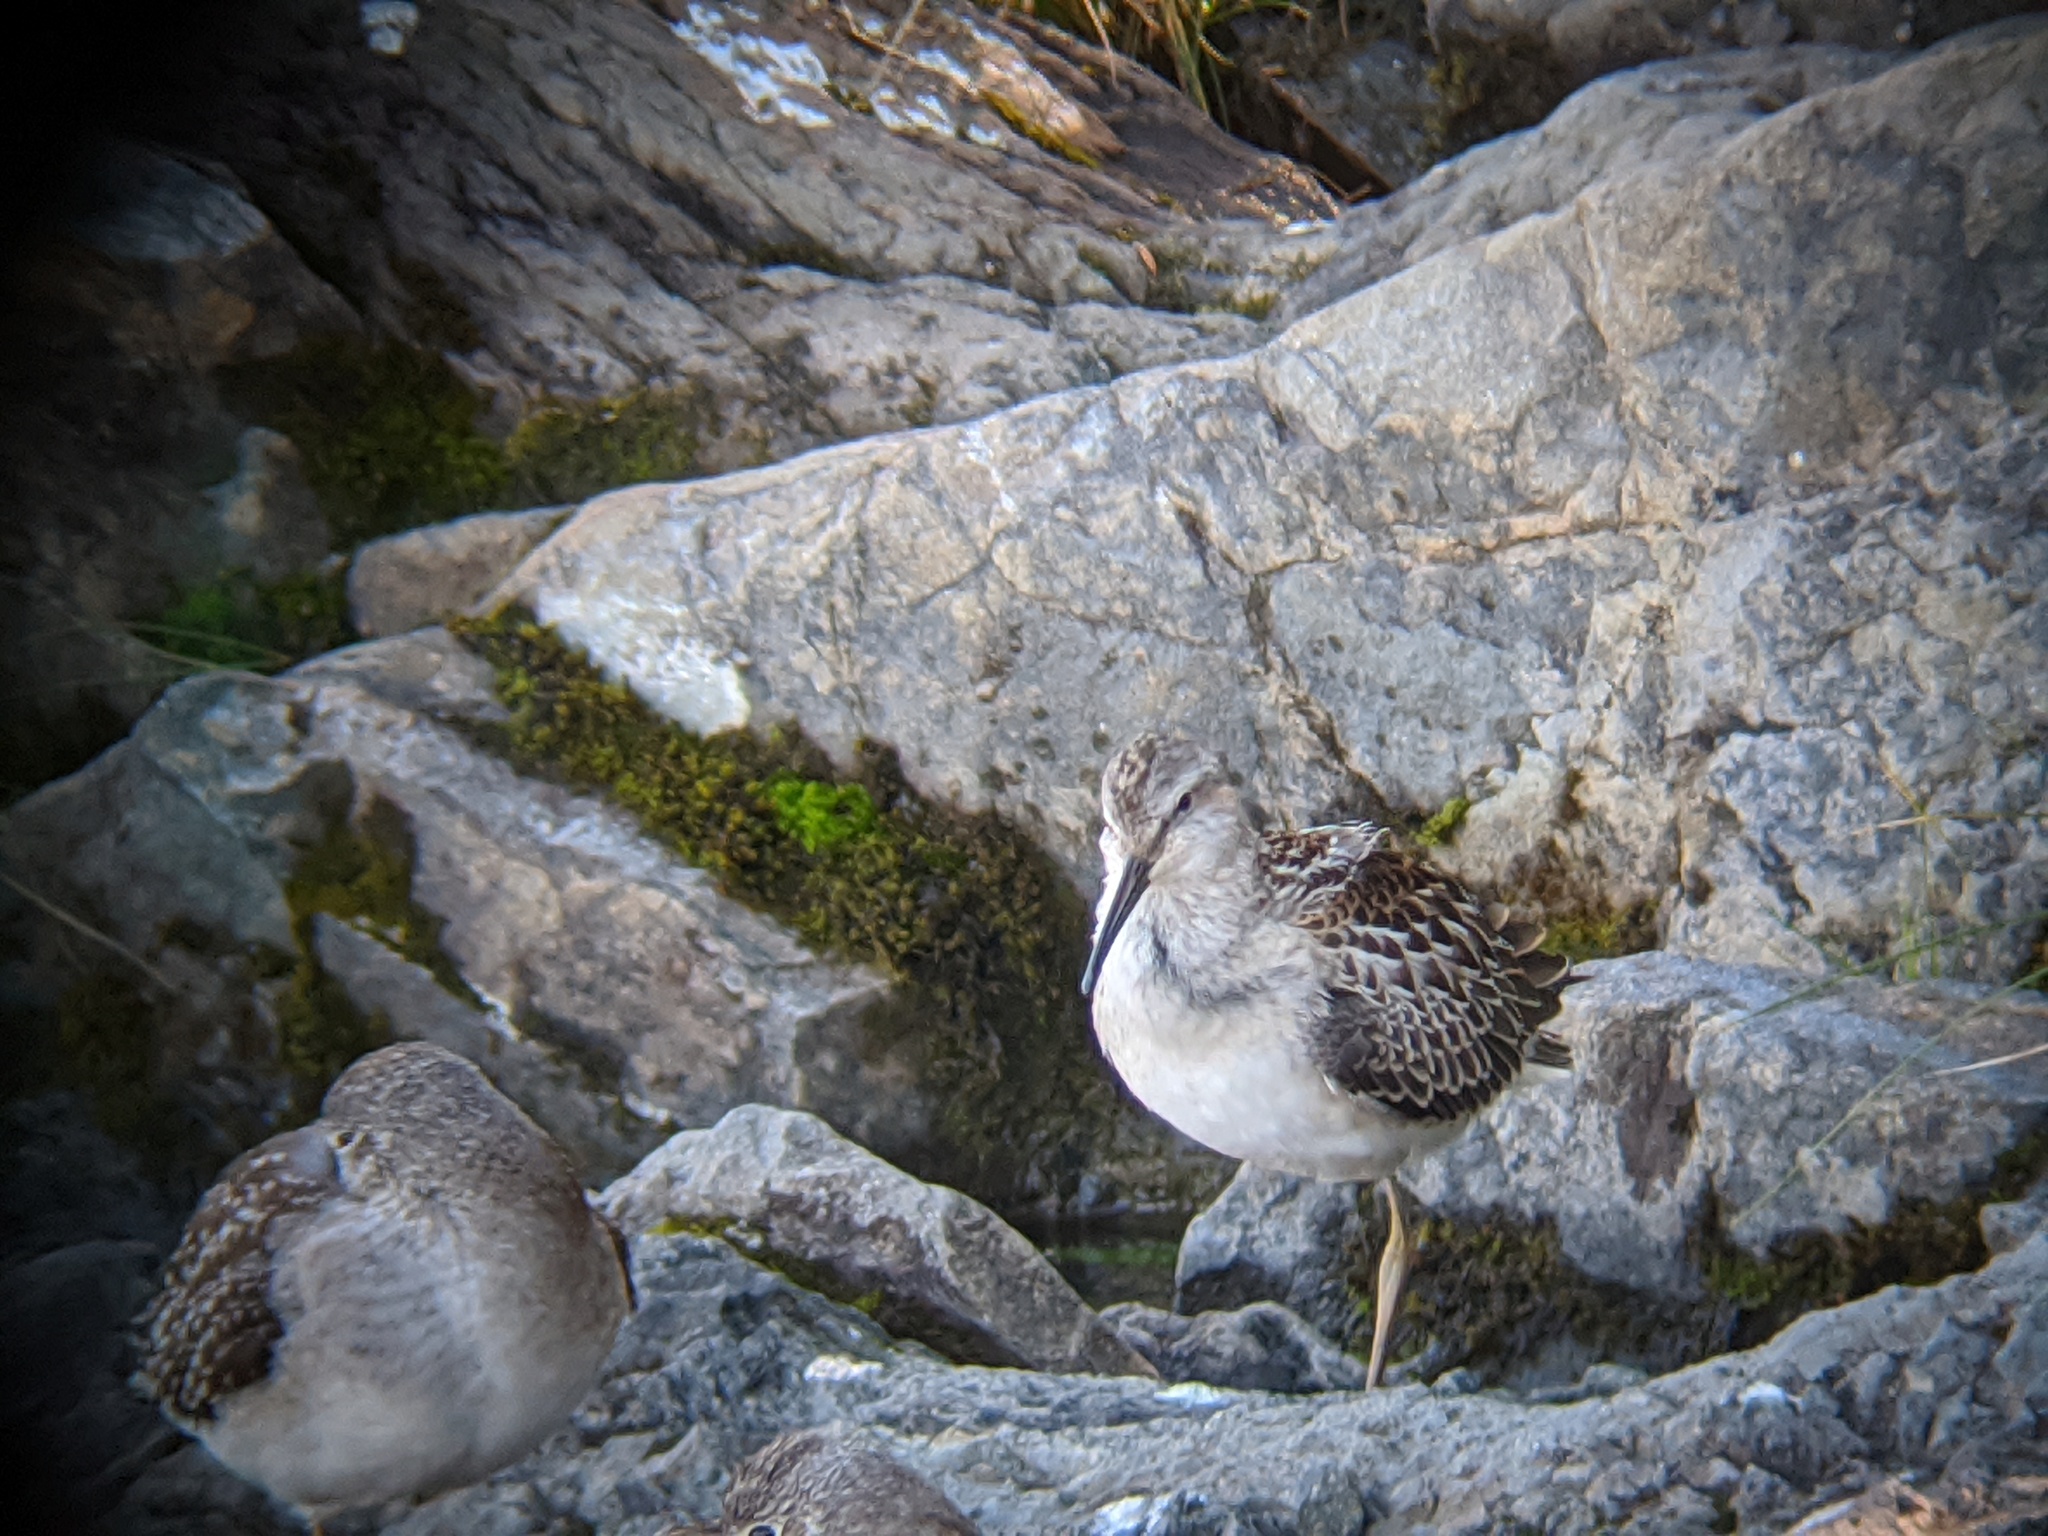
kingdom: Animalia
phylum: Chordata
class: Aves
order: Charadriiformes
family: Scolopacidae
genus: Calidris
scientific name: Calidris himantopus
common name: Stilt sandpiper
